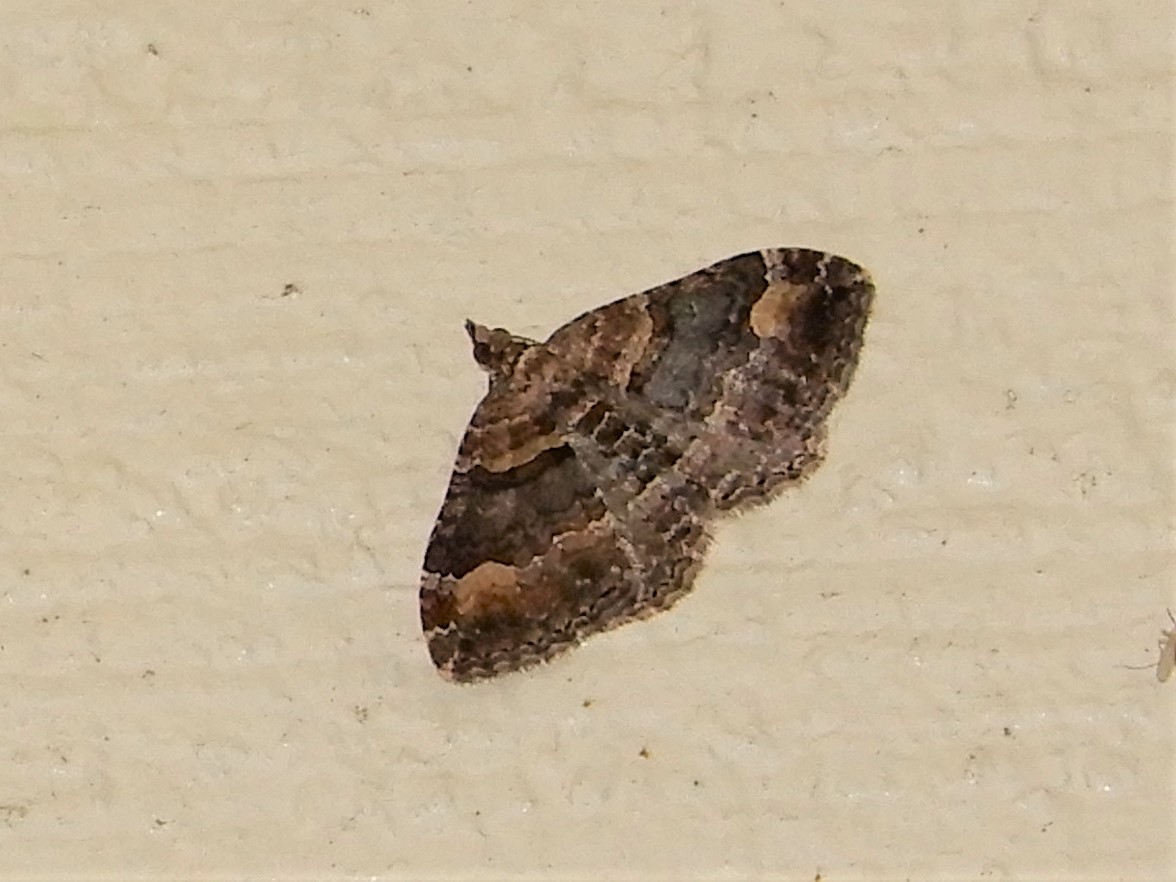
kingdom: Animalia
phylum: Arthropoda
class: Insecta
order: Lepidoptera
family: Geometridae
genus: Epyaxa
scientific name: Epyaxa lucidata
